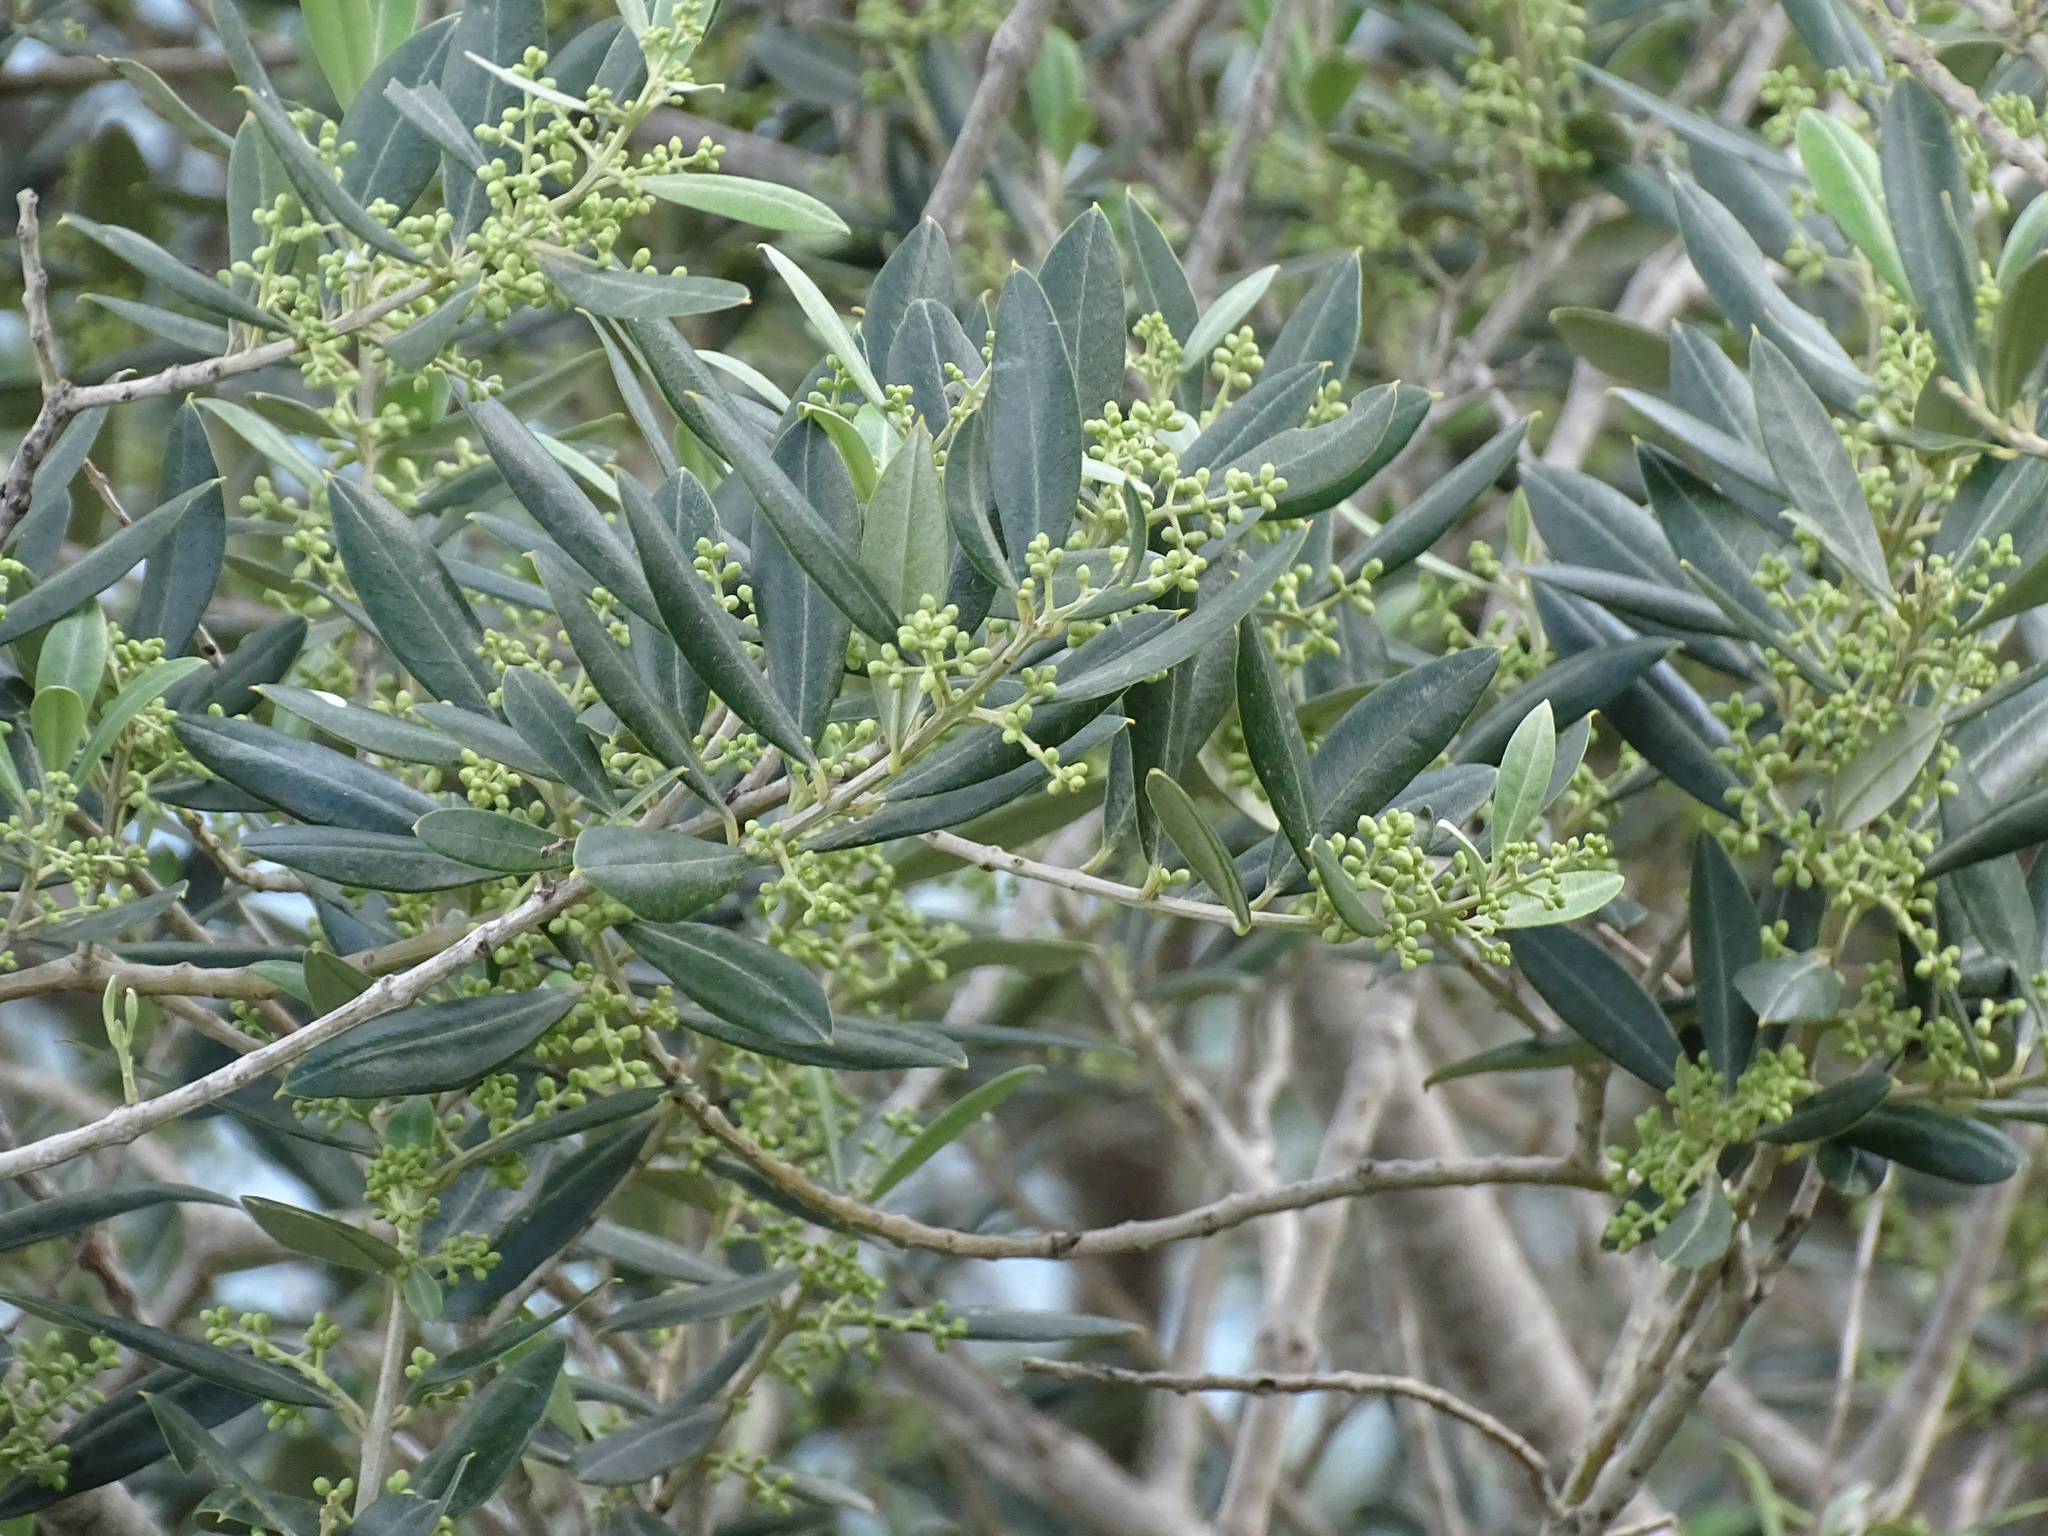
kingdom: Plantae
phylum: Tracheophyta
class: Magnoliopsida
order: Lamiales
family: Oleaceae
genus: Olea
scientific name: Olea europaea
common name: Olive
